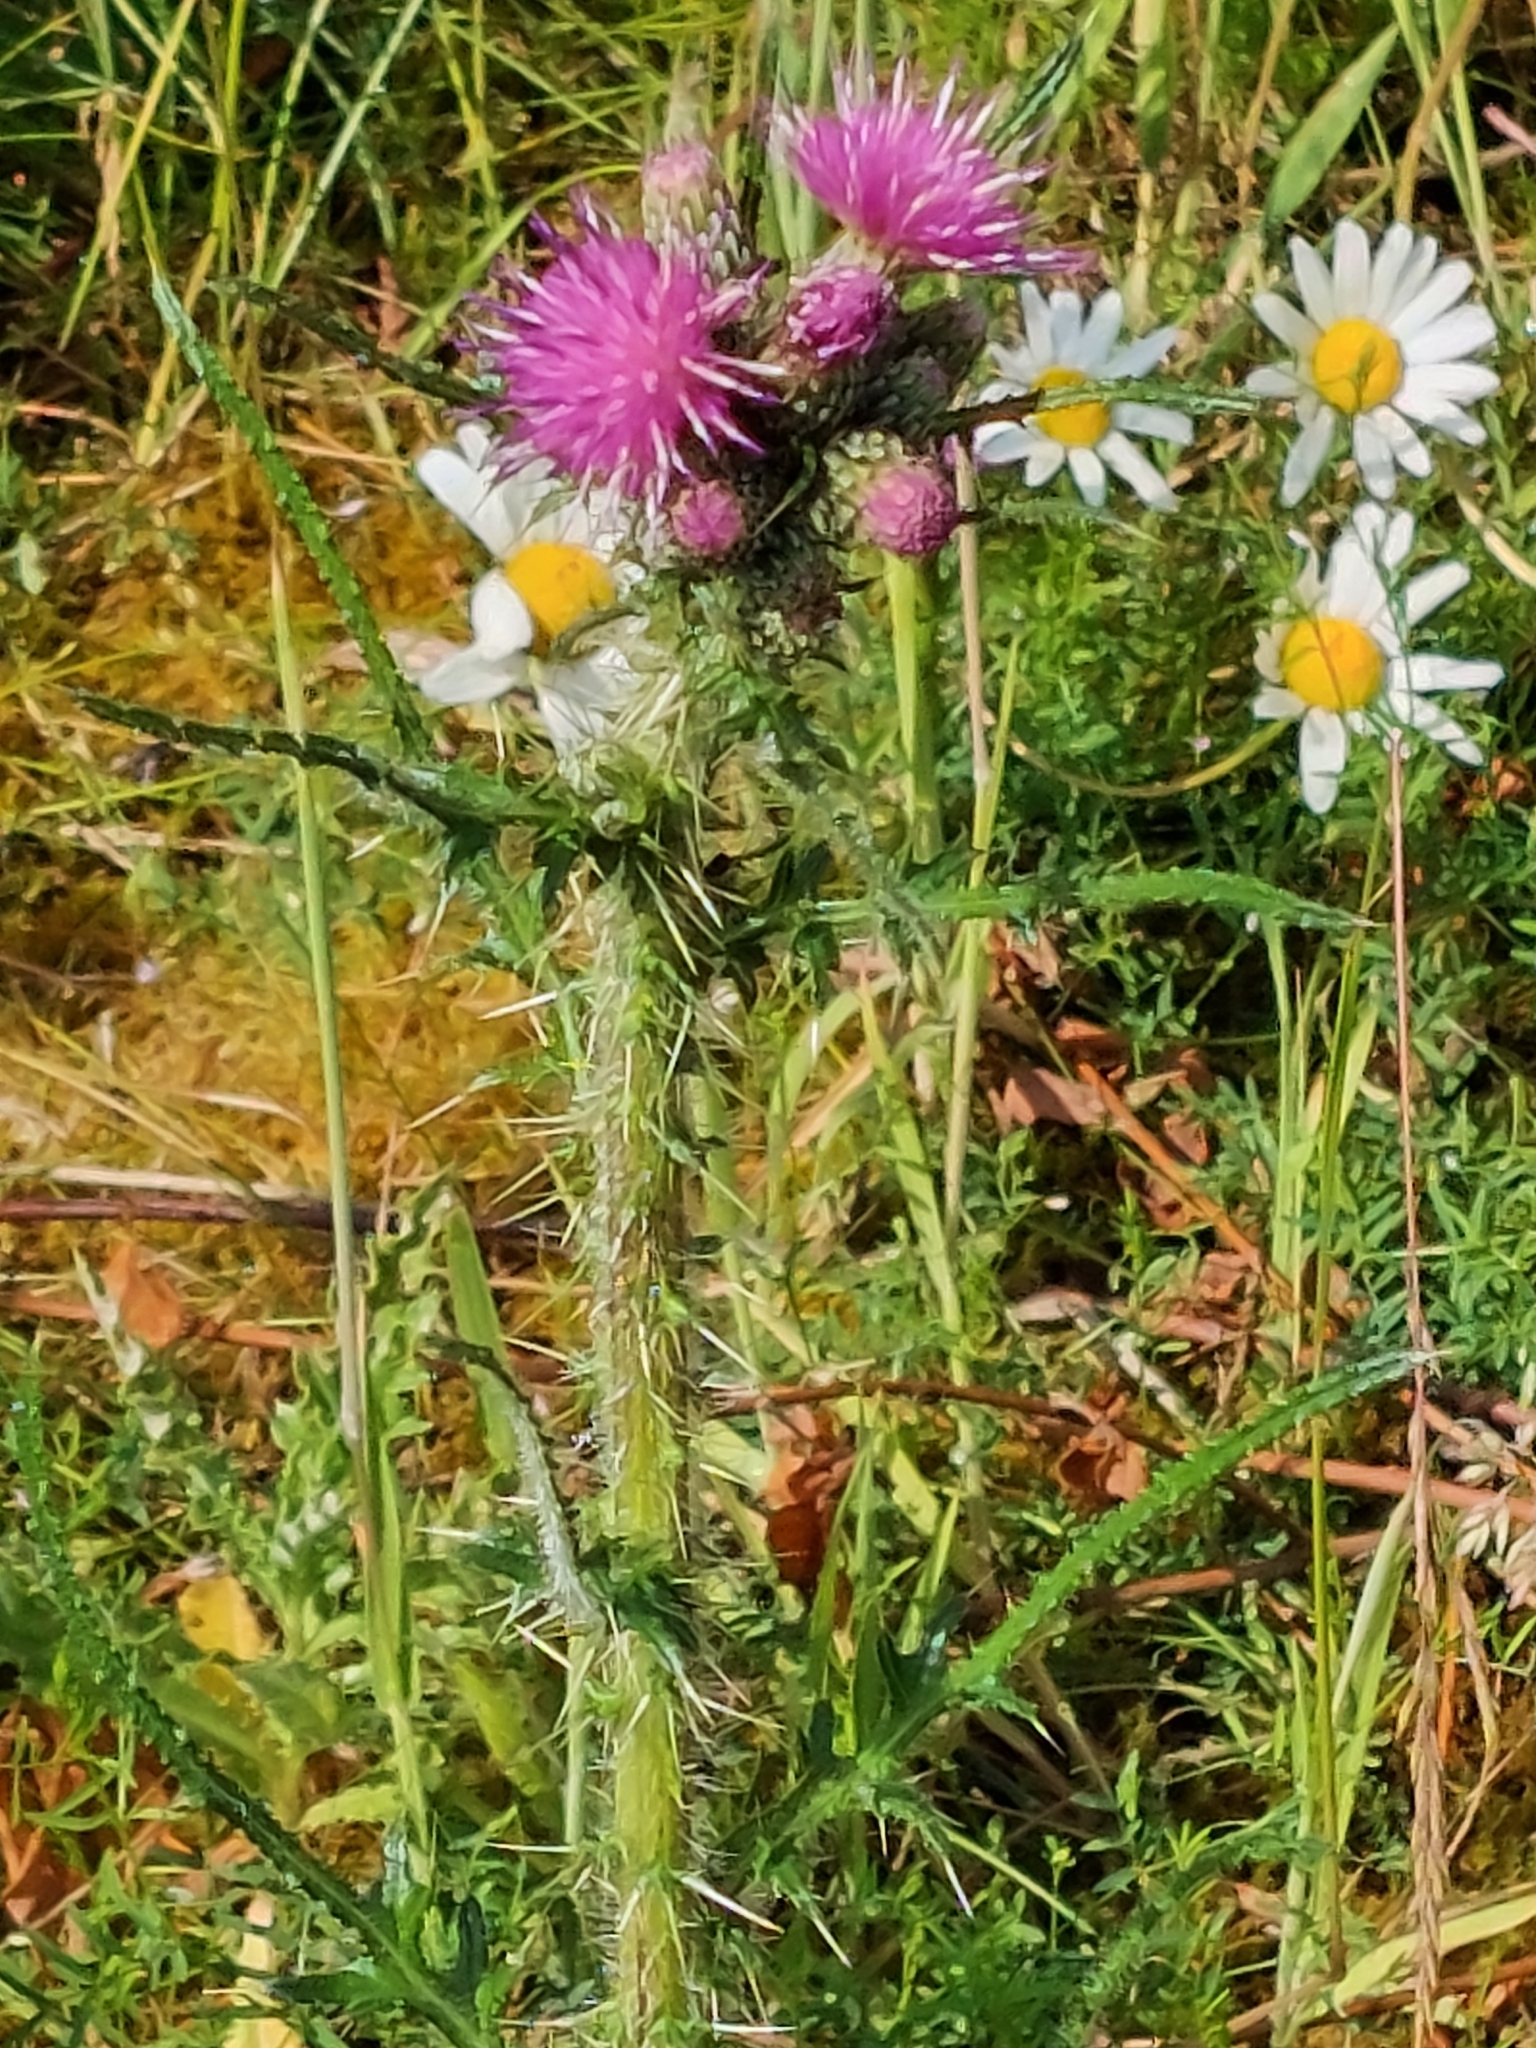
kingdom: Plantae
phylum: Tracheophyta
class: Magnoliopsida
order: Asterales
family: Asteraceae
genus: Cirsium
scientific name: Cirsium palustre
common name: Marsh thistle
